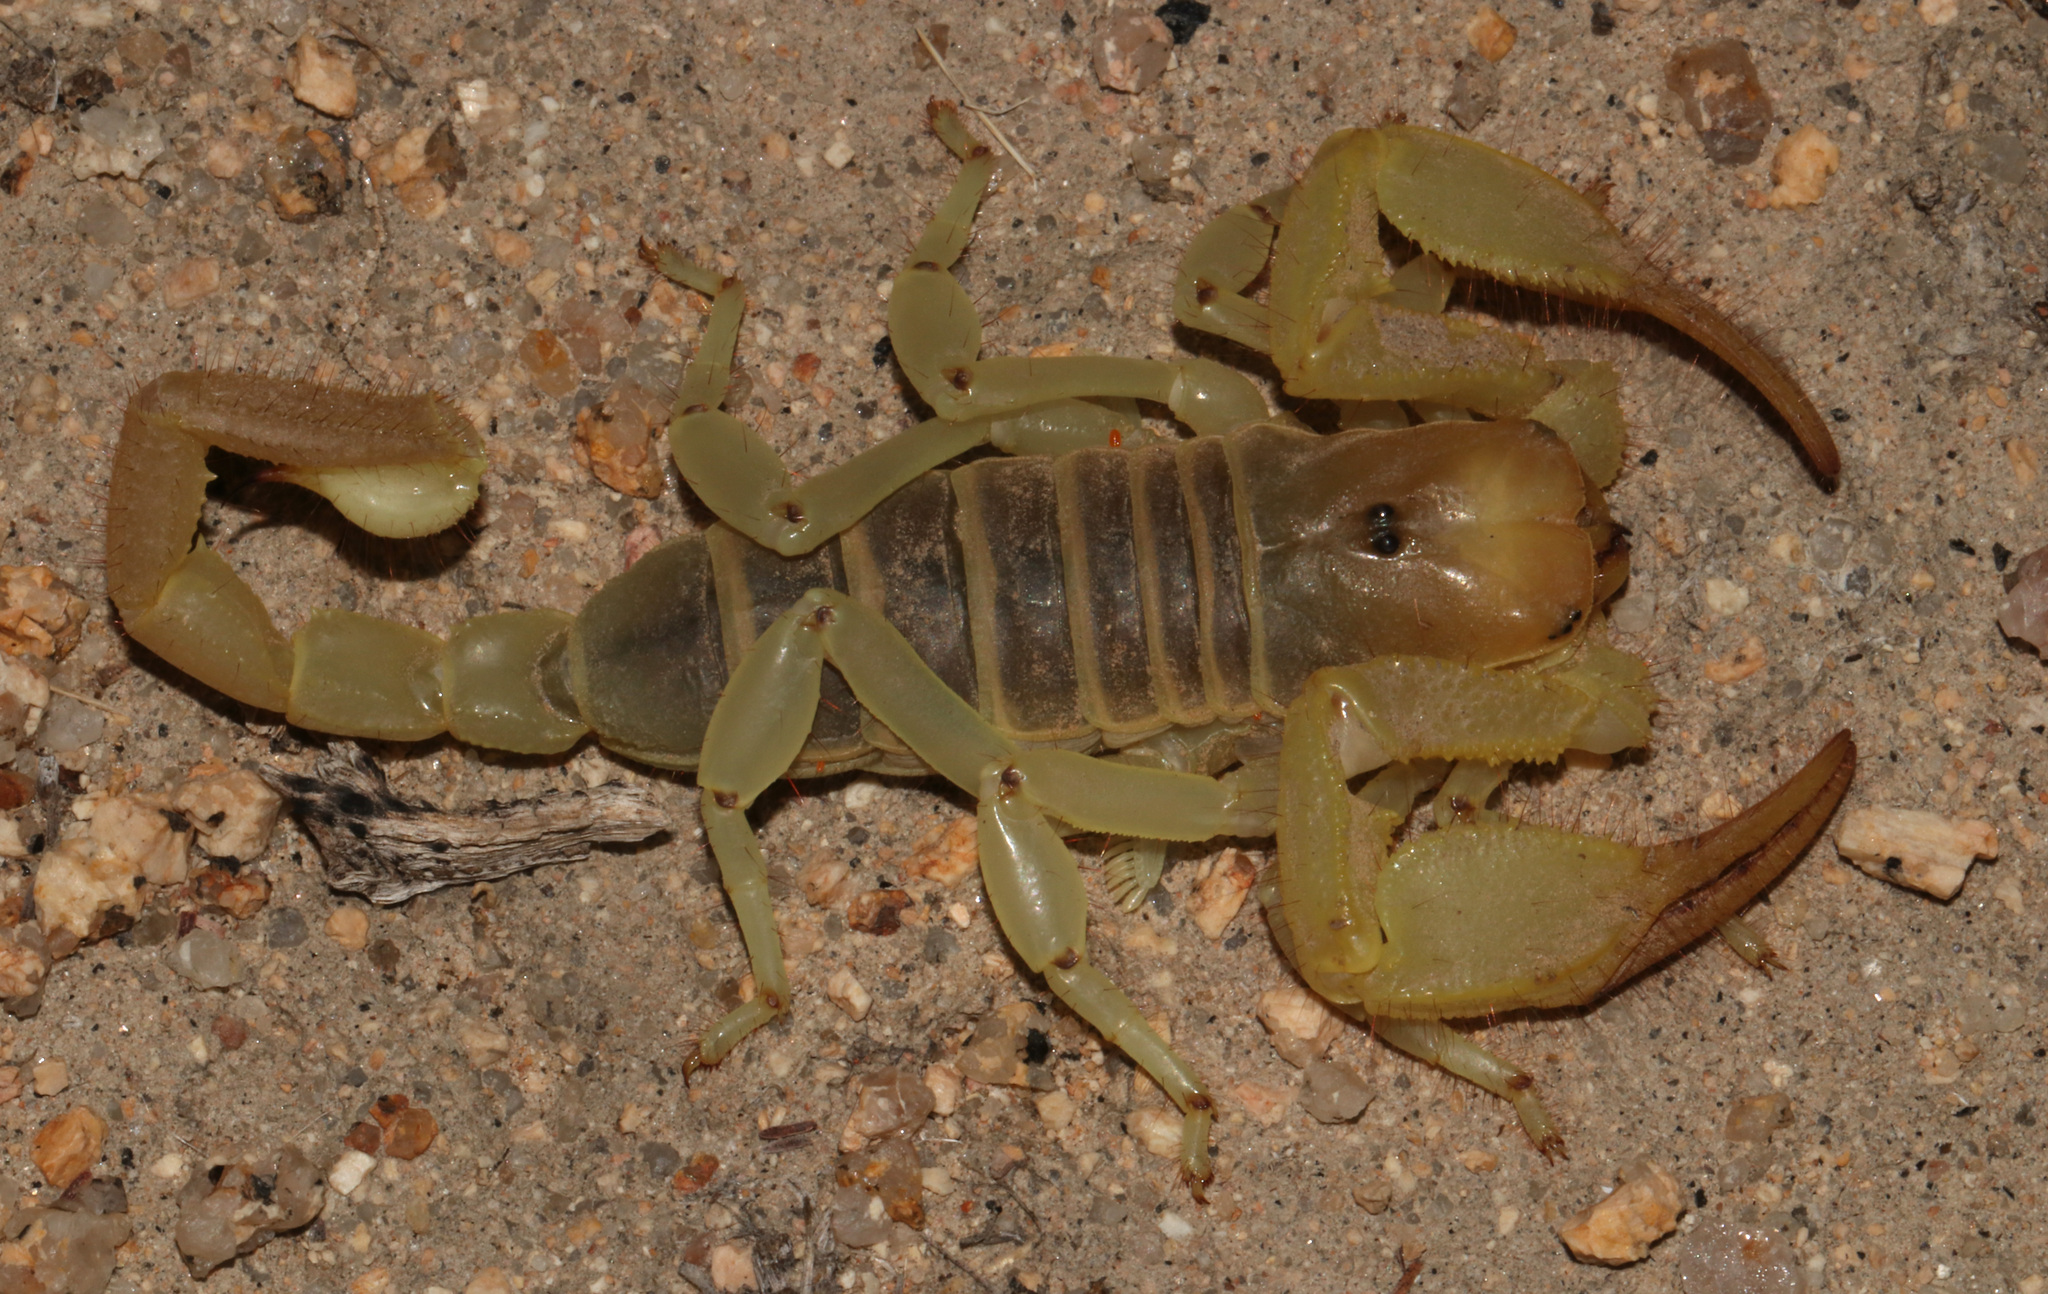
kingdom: Animalia
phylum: Arthropoda
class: Arachnida
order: Scorpiones
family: Scorpionidae
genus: Opistophthalmus
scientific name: Opistophthalmus wahlbergii
